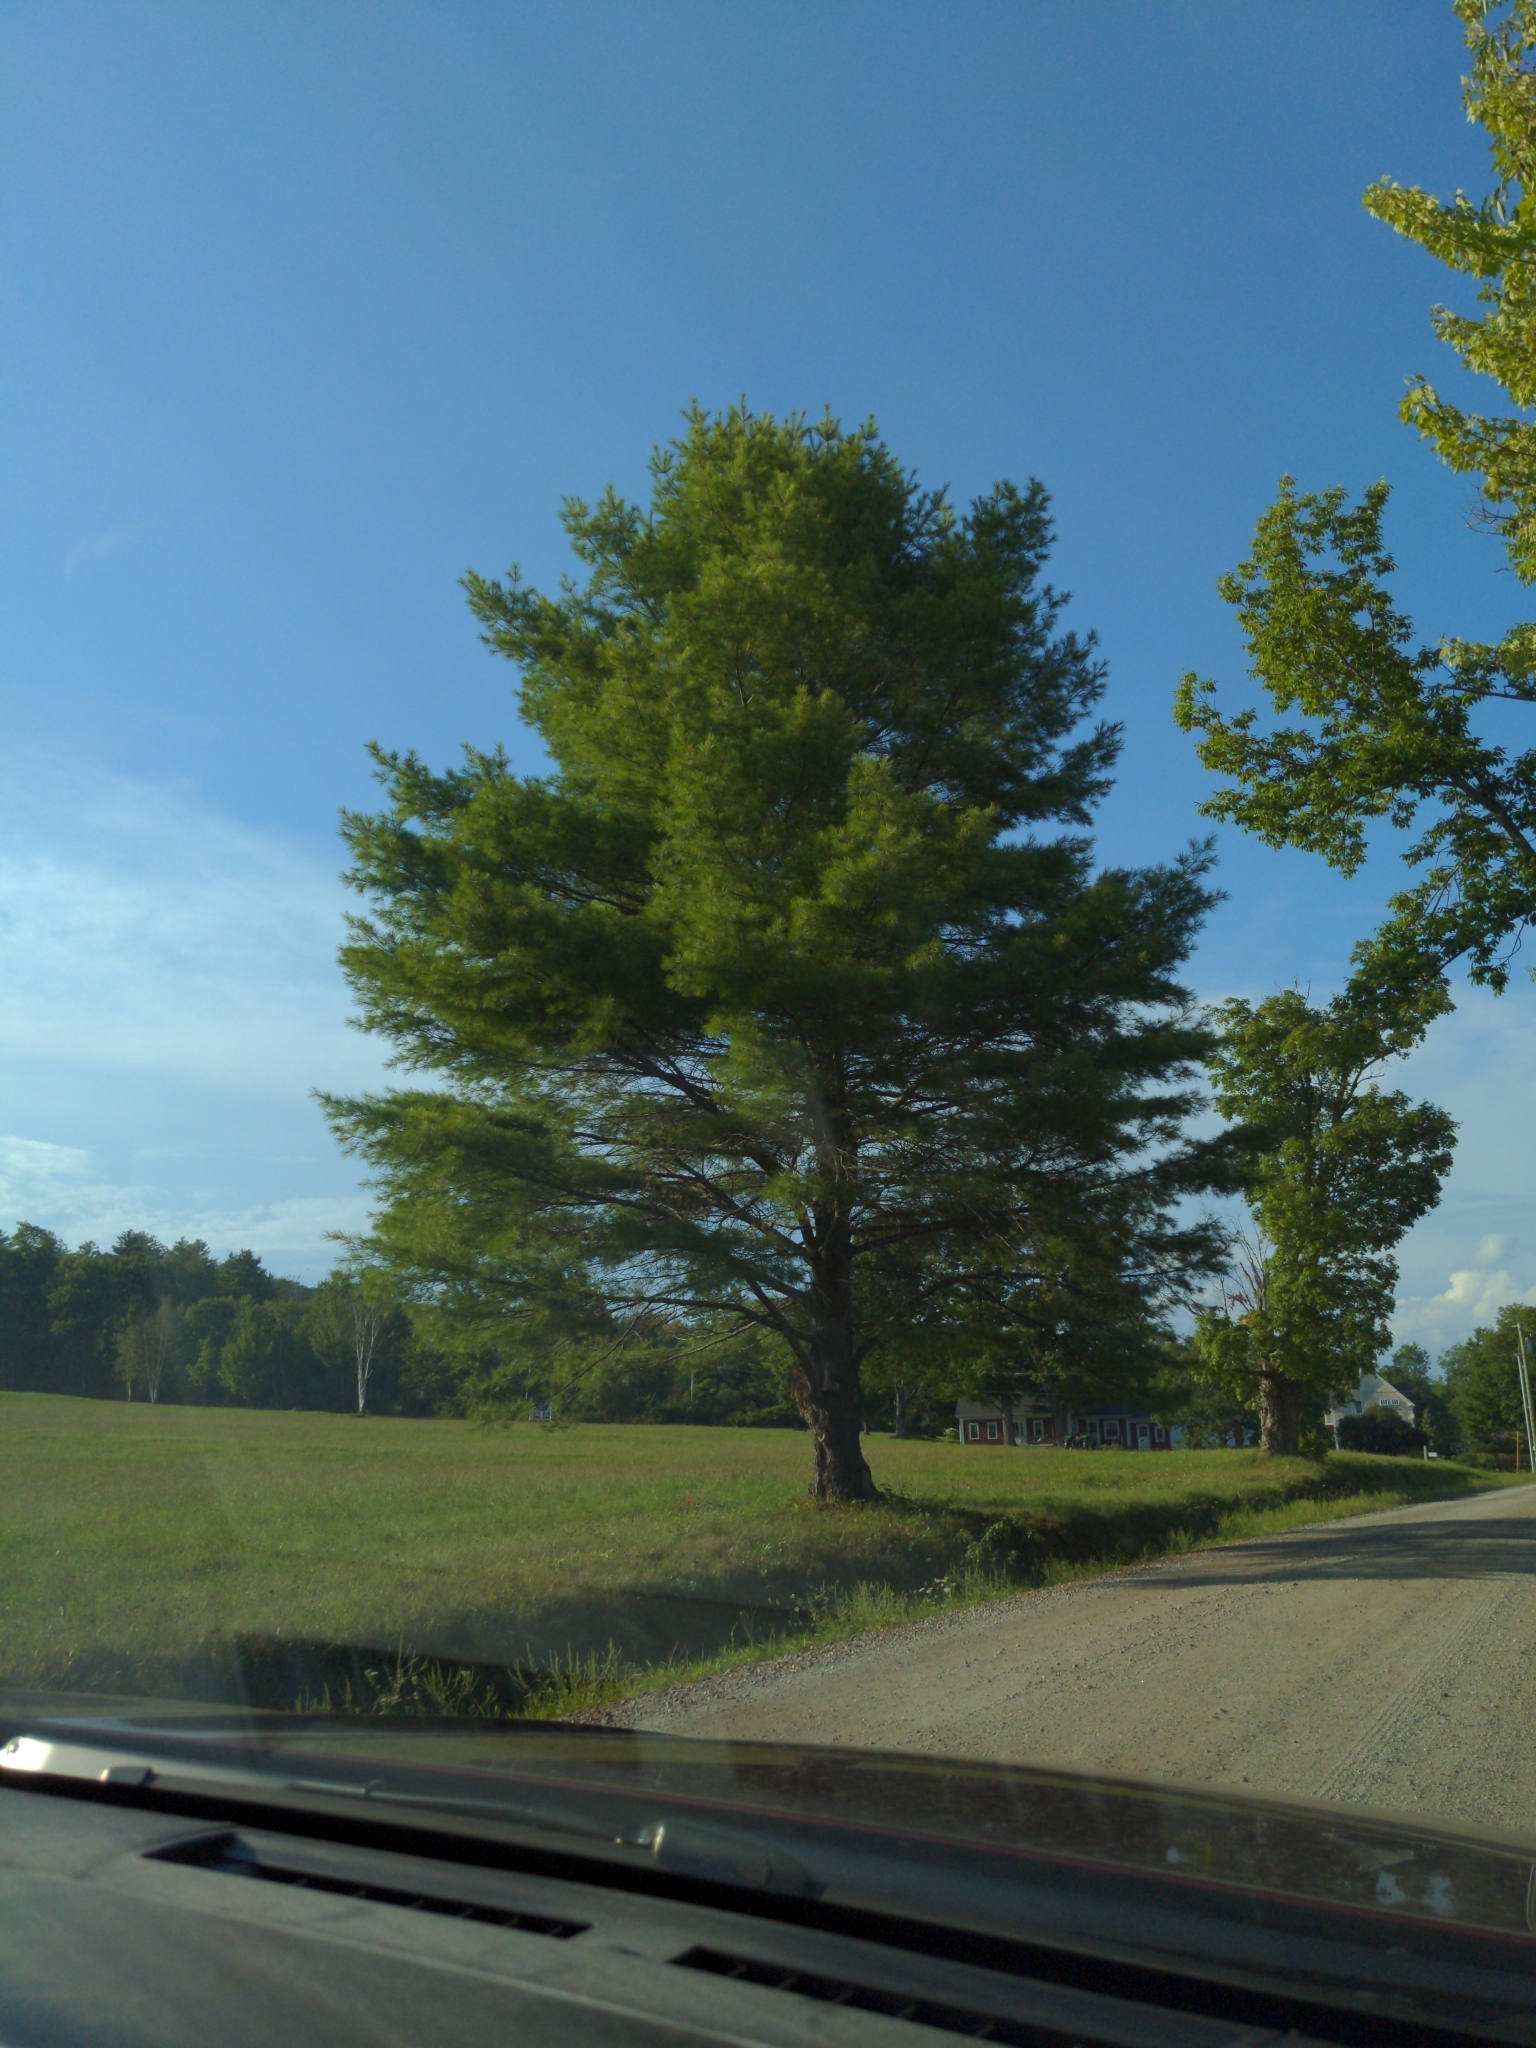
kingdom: Plantae
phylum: Tracheophyta
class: Pinopsida
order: Pinales
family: Pinaceae
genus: Pinus
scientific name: Pinus strobus
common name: Weymouth pine
